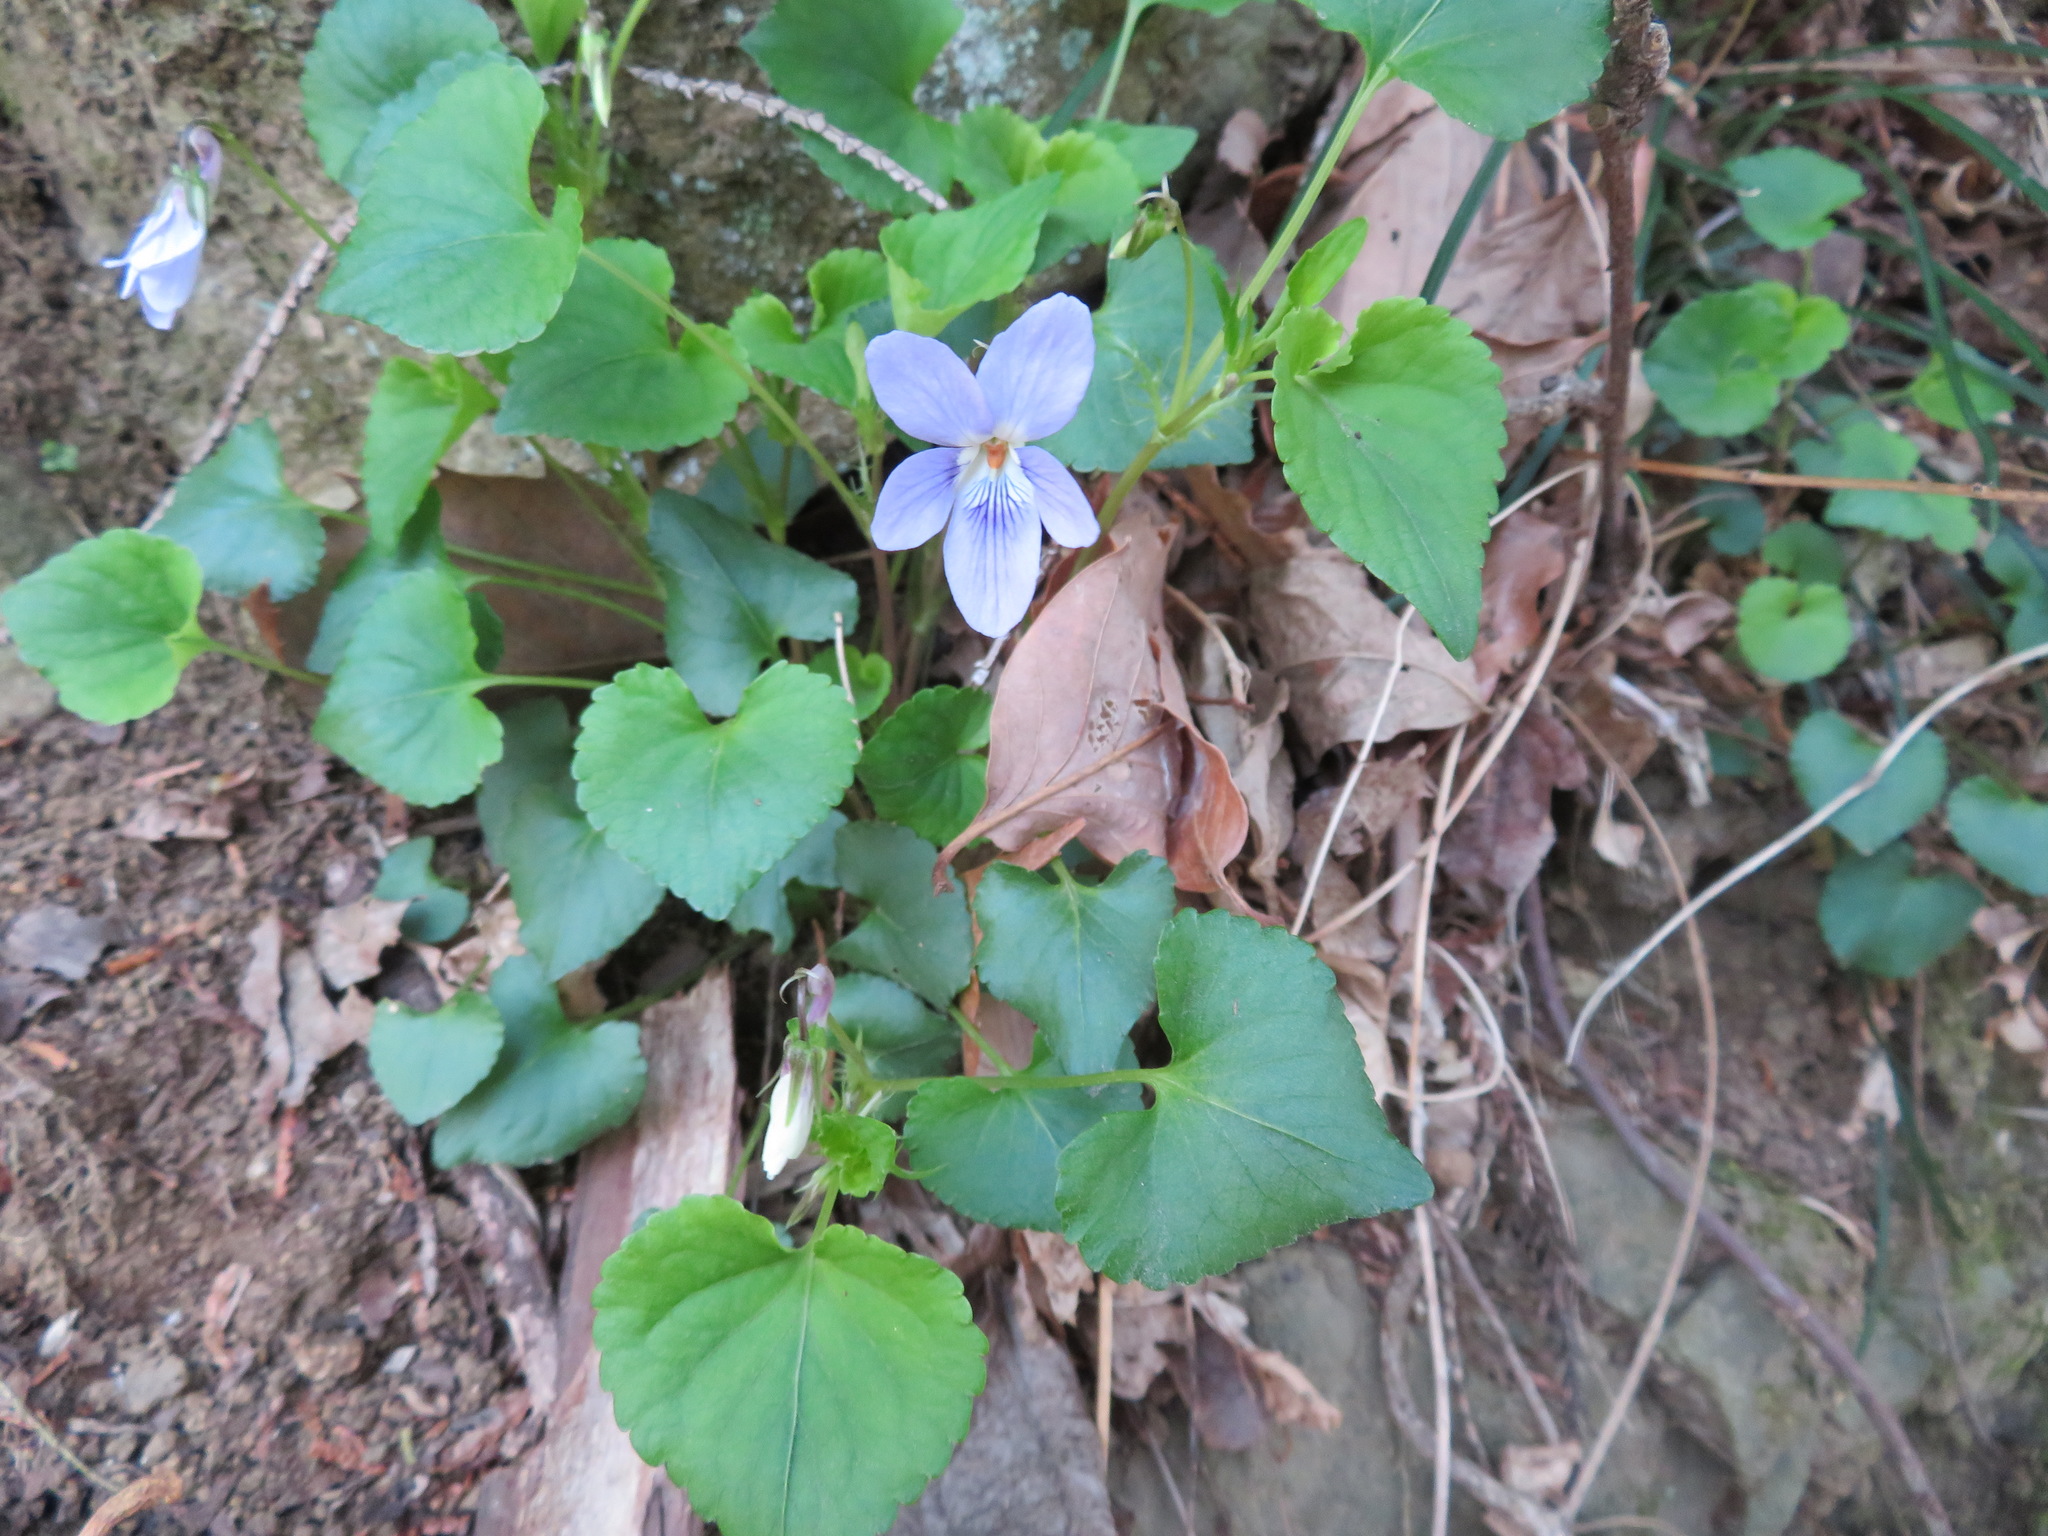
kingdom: Plantae
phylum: Tracheophyta
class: Magnoliopsida
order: Malpighiales
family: Violaceae
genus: Viola
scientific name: Viola grypoceras
